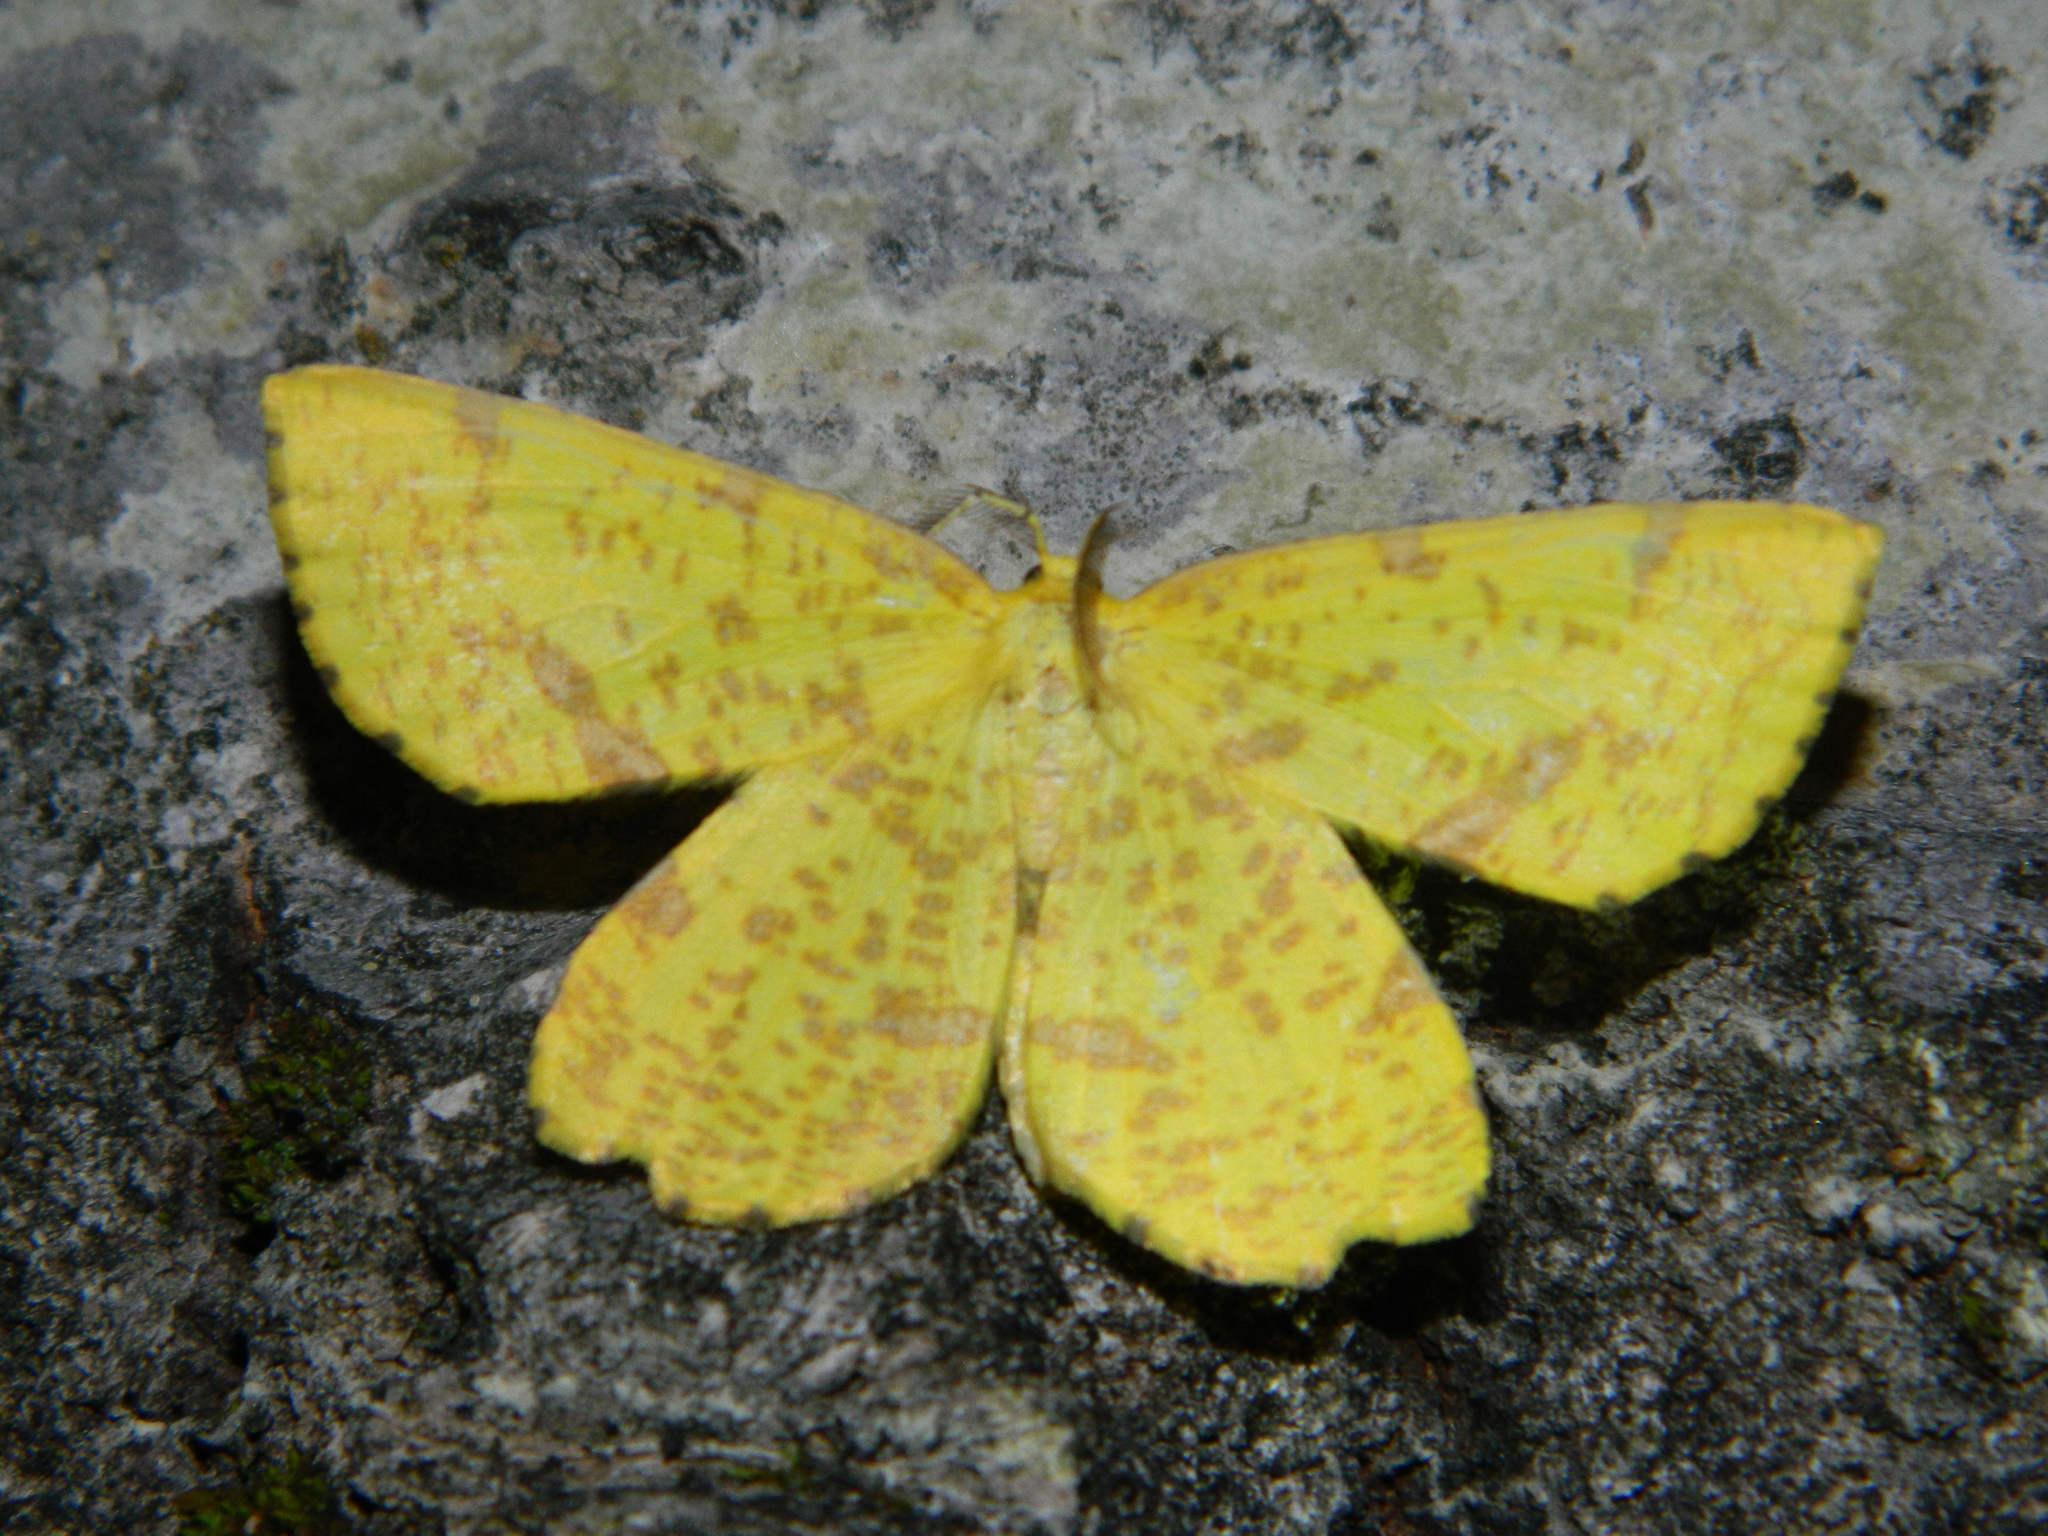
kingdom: Animalia
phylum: Arthropoda
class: Insecta
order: Lepidoptera
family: Geometridae
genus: Xanthotype
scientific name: Xanthotype
